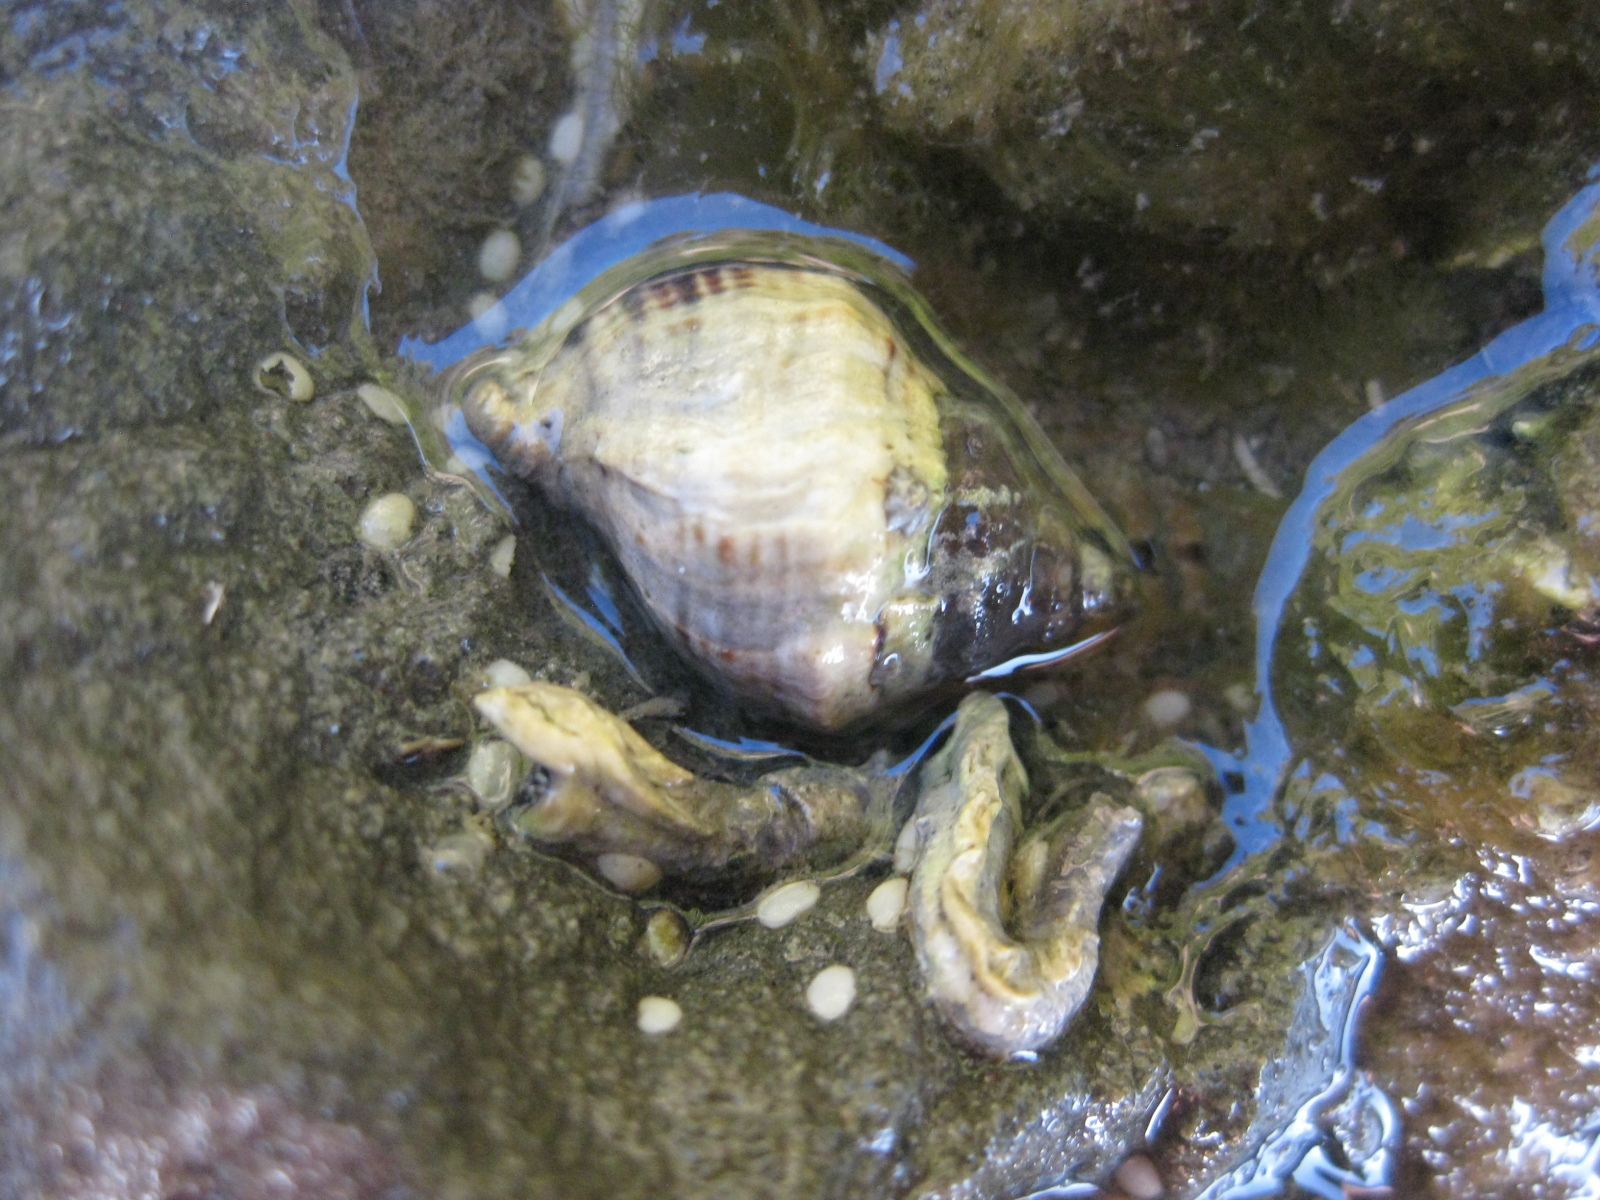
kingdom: Animalia
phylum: Mollusca
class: Gastropoda
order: Neogastropoda
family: Muricidae
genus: Haustrum
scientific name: Haustrum albomarginatum
